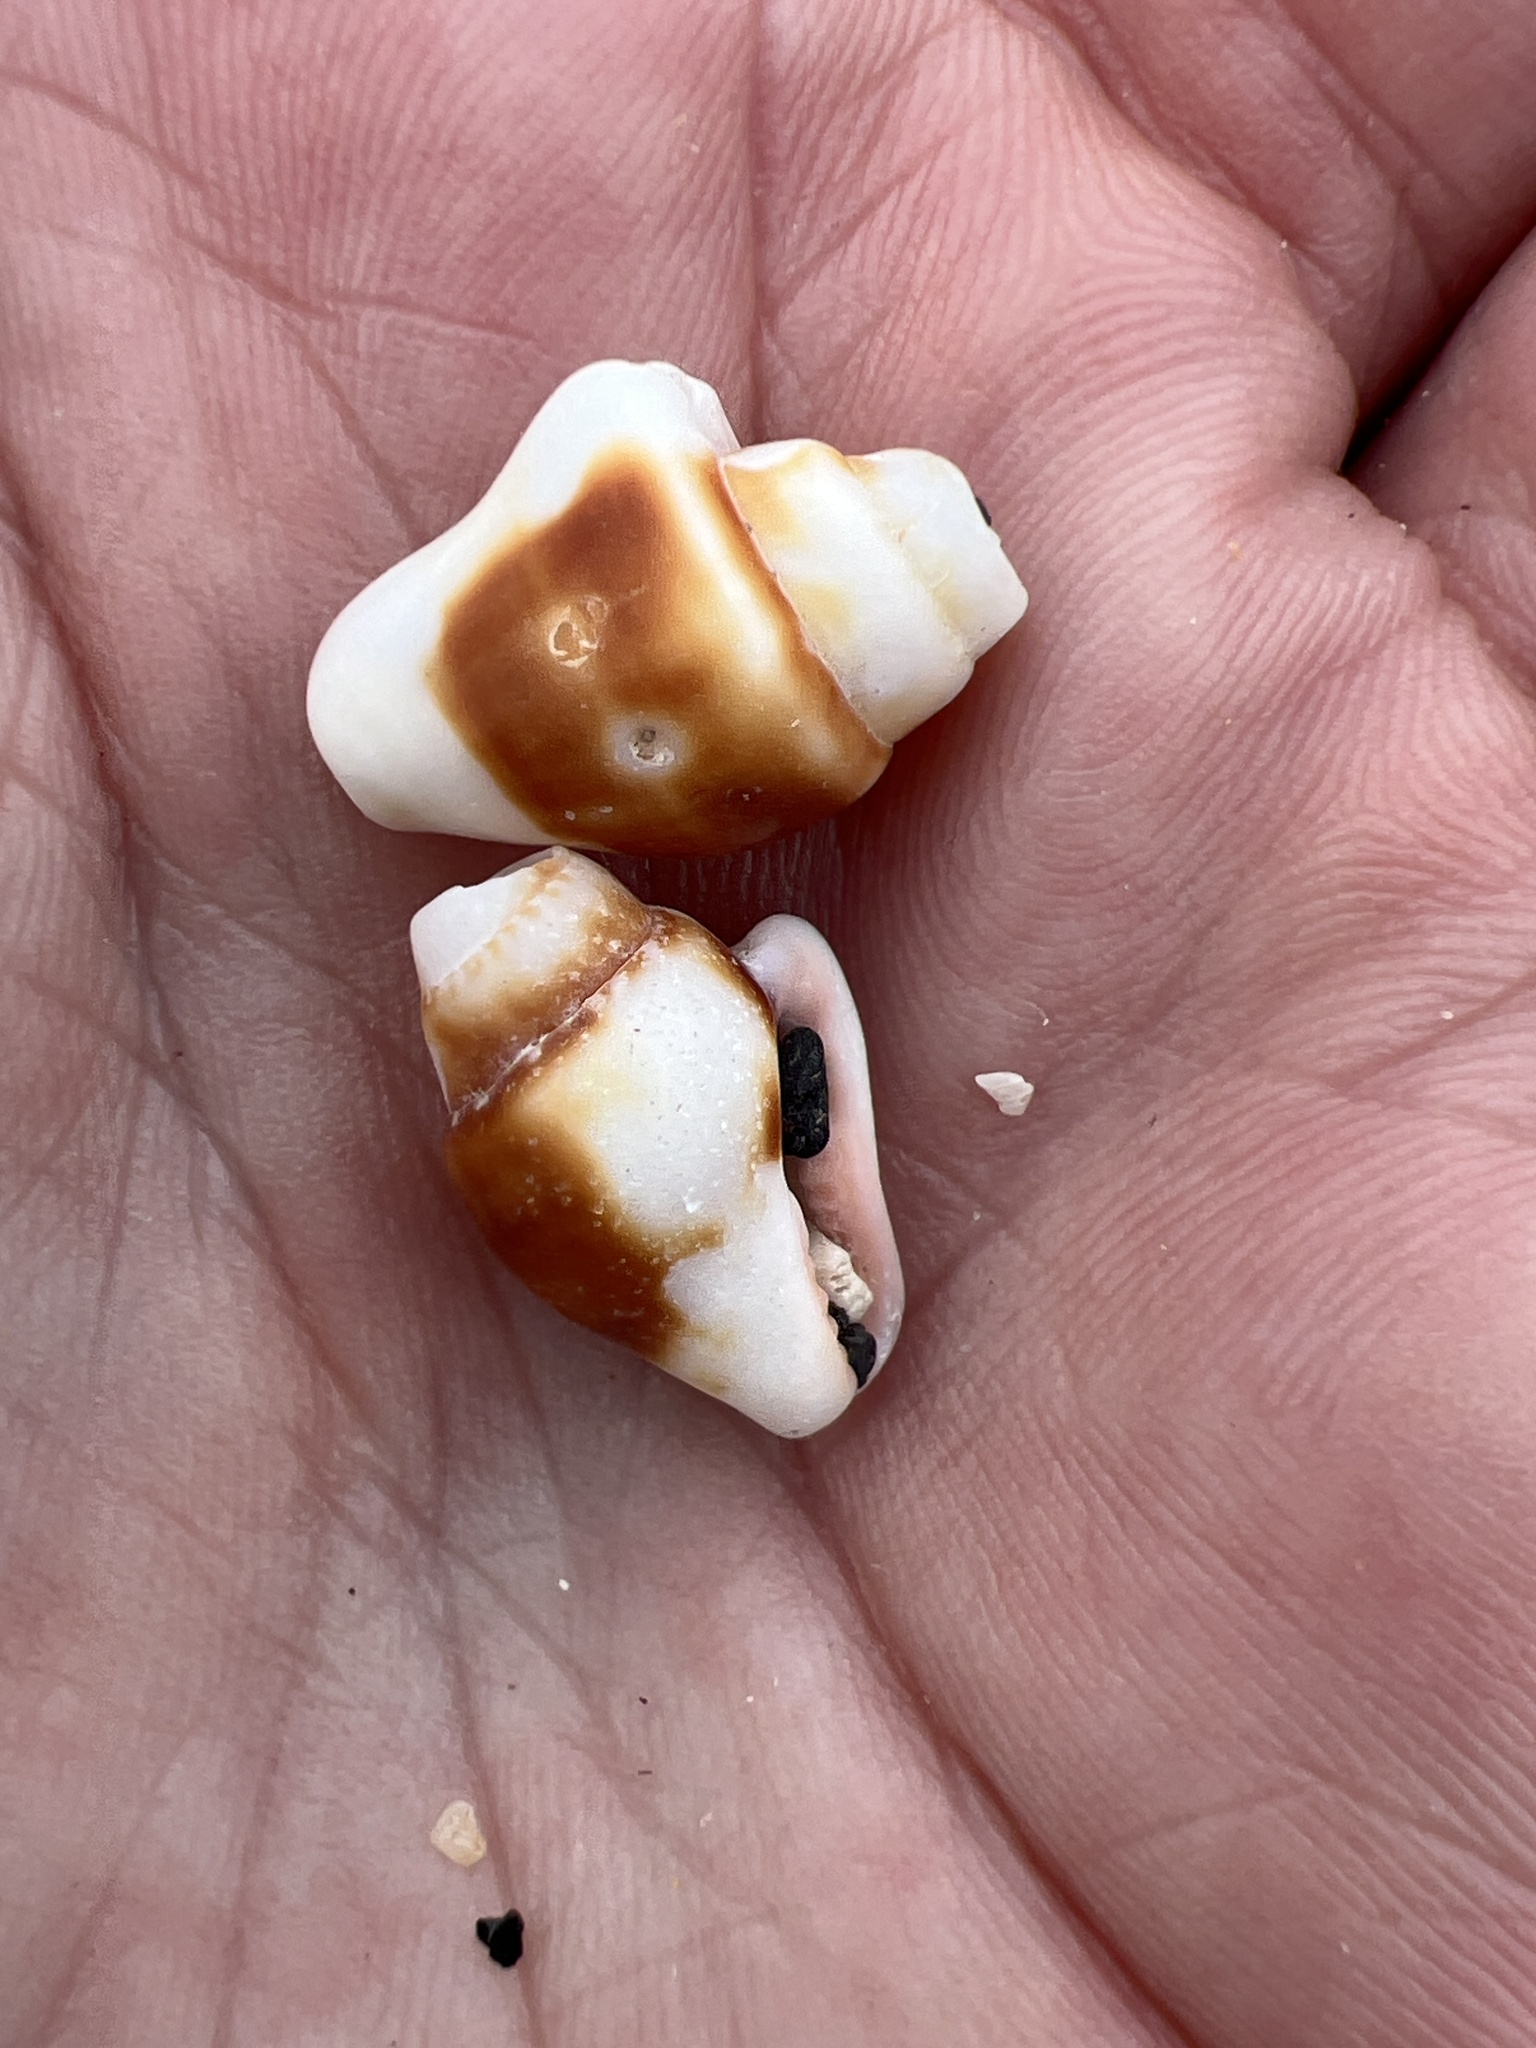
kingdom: Animalia
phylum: Mollusca
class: Gastropoda
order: Neogastropoda
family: Columbellidae
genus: Columbella
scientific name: Columbella haemastoma
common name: Blood-stained dovesnail
